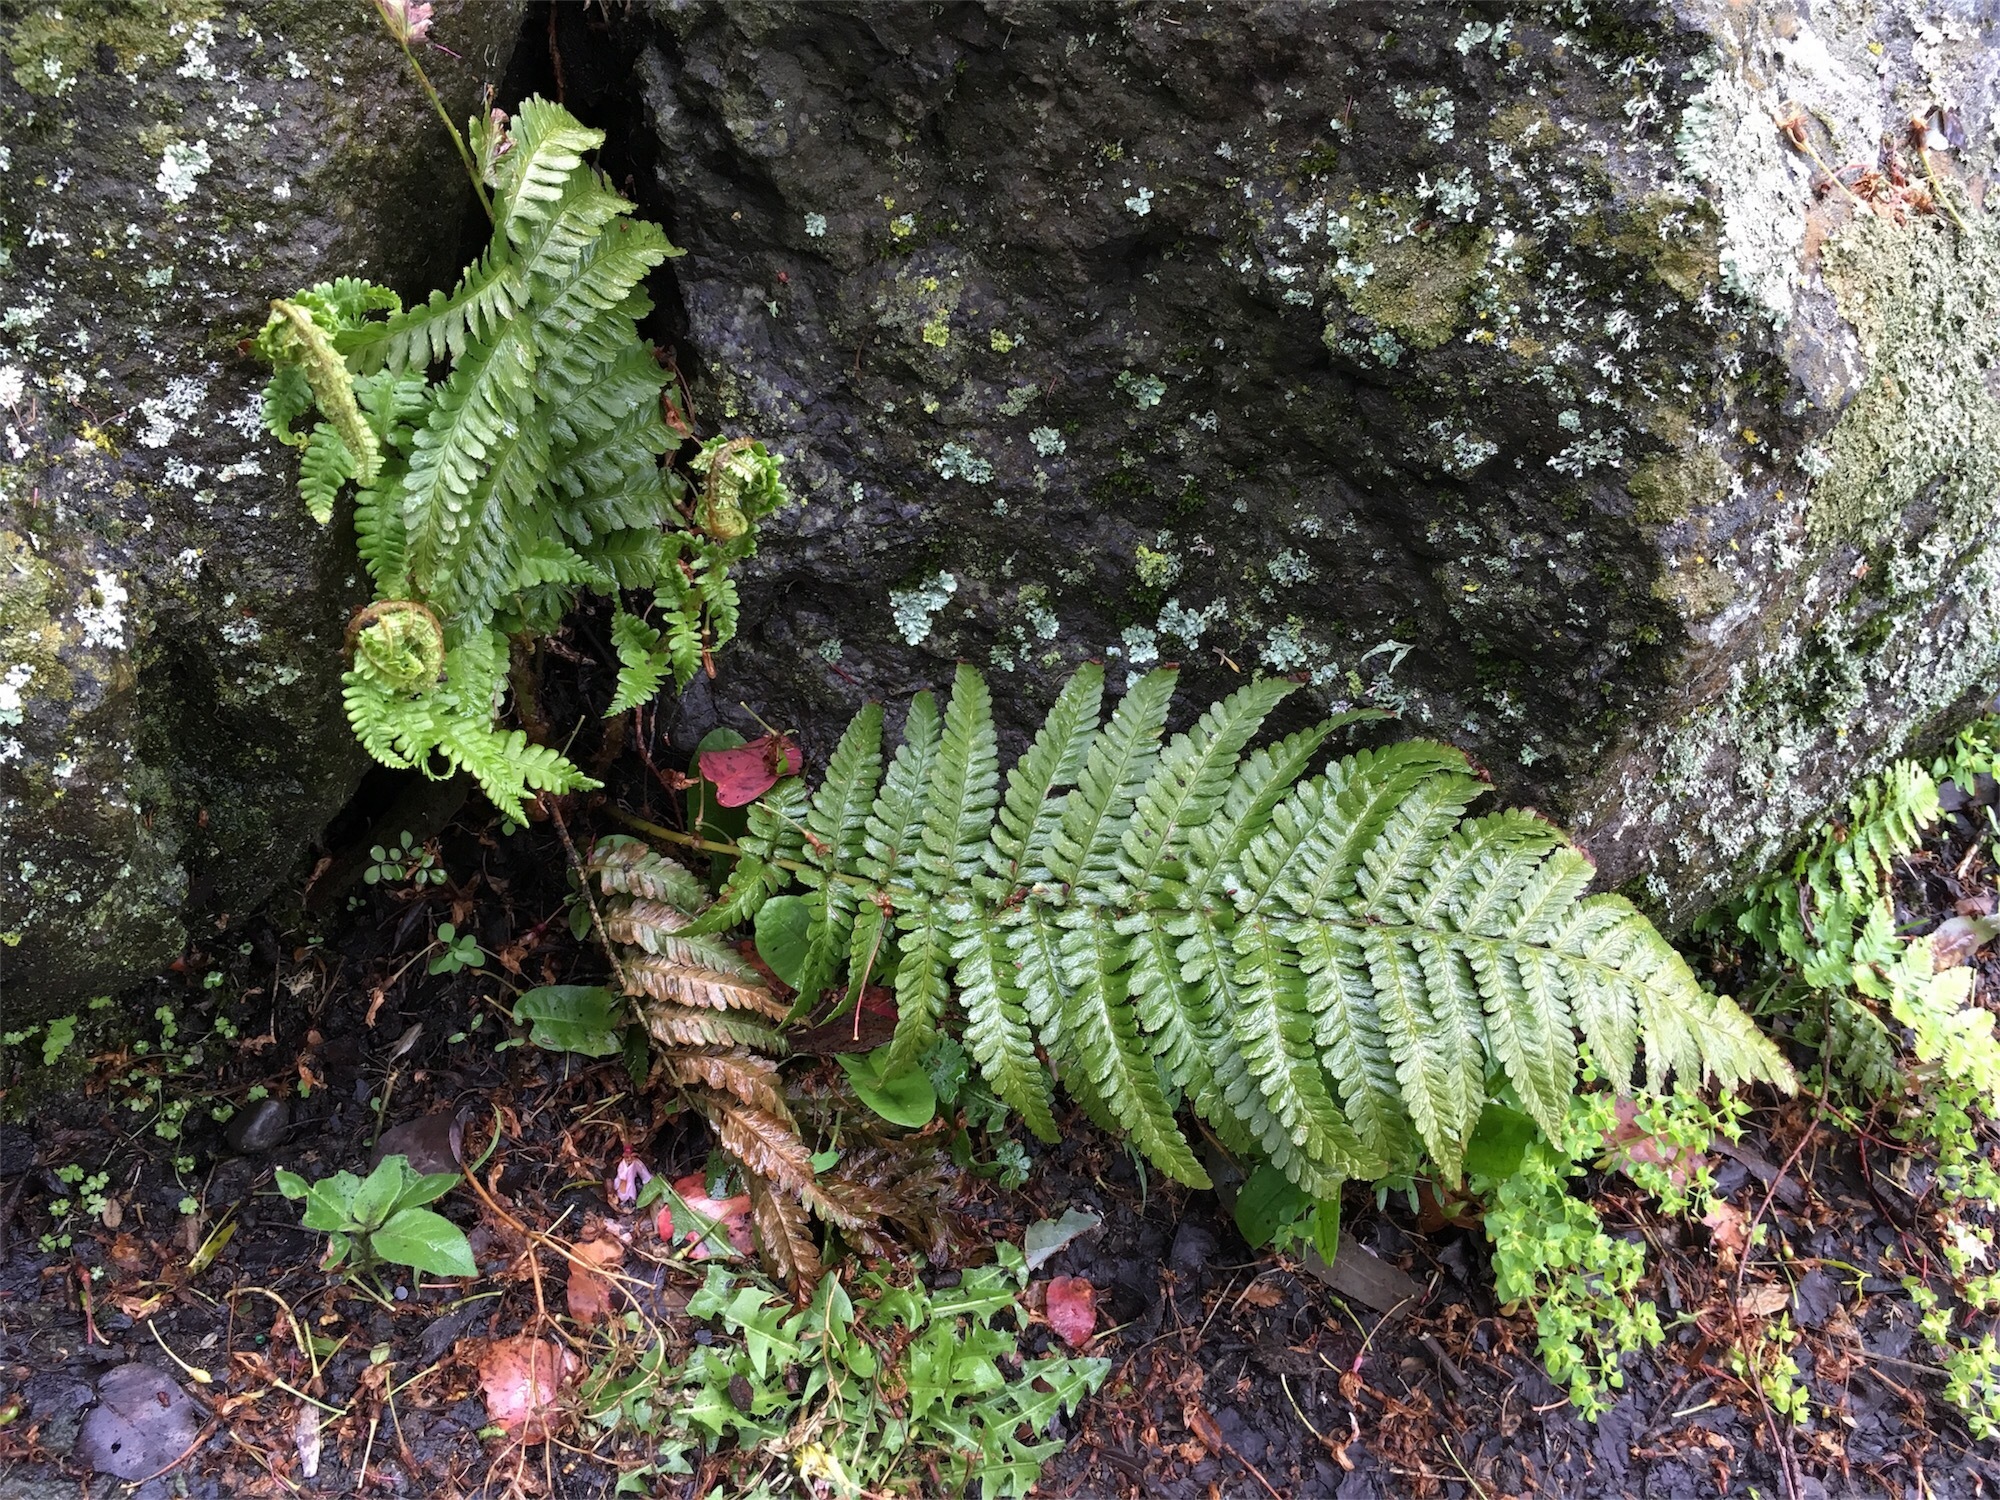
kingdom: Plantae
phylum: Tracheophyta
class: Polypodiopsida
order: Polypodiales
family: Dryopteridaceae
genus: Dryopteris
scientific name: Dryopteris filix-mas
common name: Male fern
